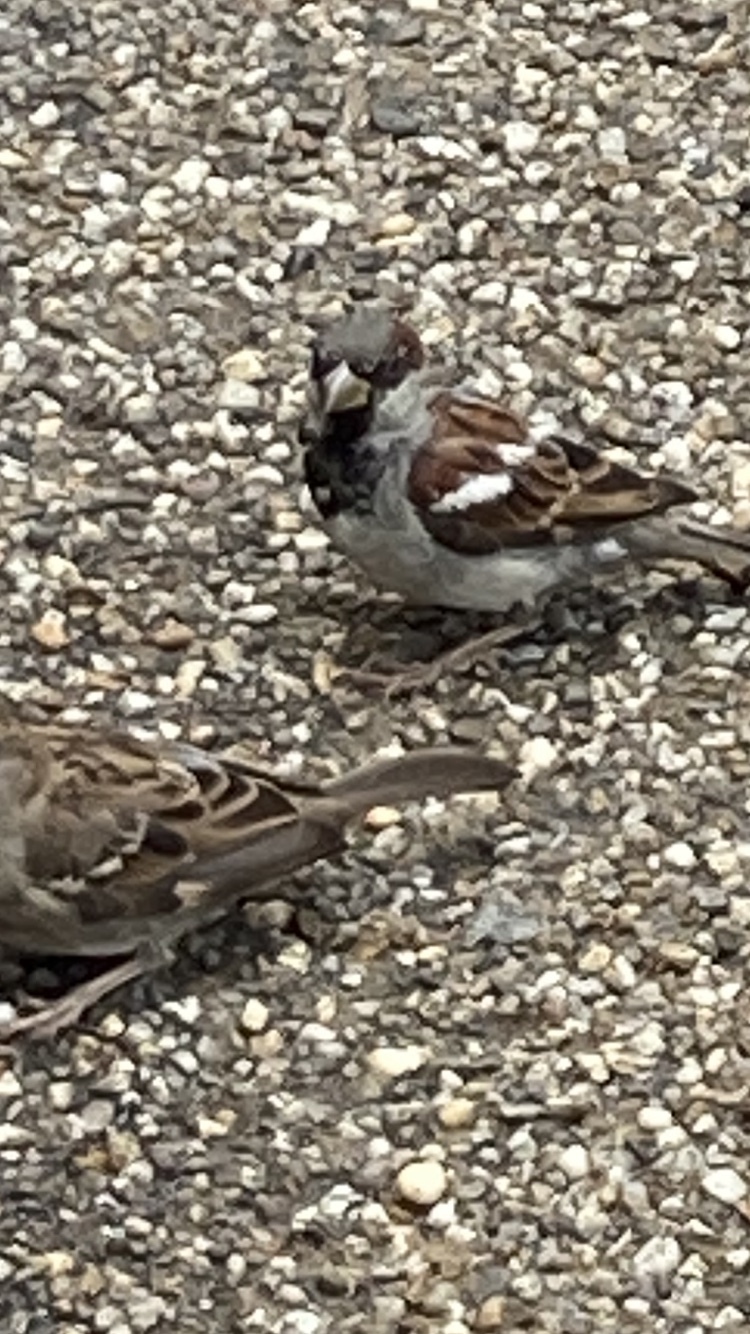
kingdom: Animalia
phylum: Chordata
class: Aves
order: Passeriformes
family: Passeridae
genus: Passer
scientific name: Passer domesticus
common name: House sparrow
